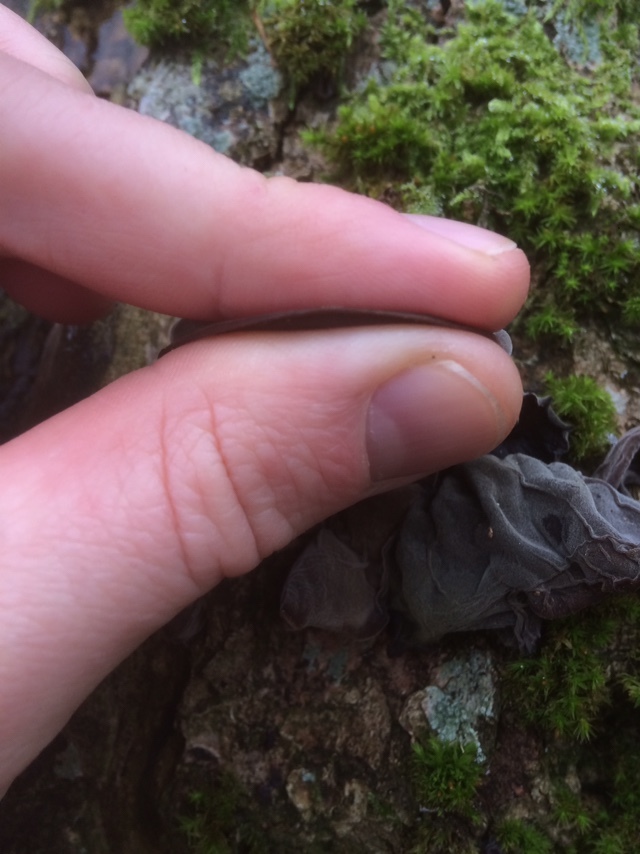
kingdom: Fungi
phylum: Basidiomycota
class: Agaricomycetes
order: Auriculariales
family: Auriculariaceae
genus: Auricularia
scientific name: Auricularia auricula-judae
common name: Jelly ear
